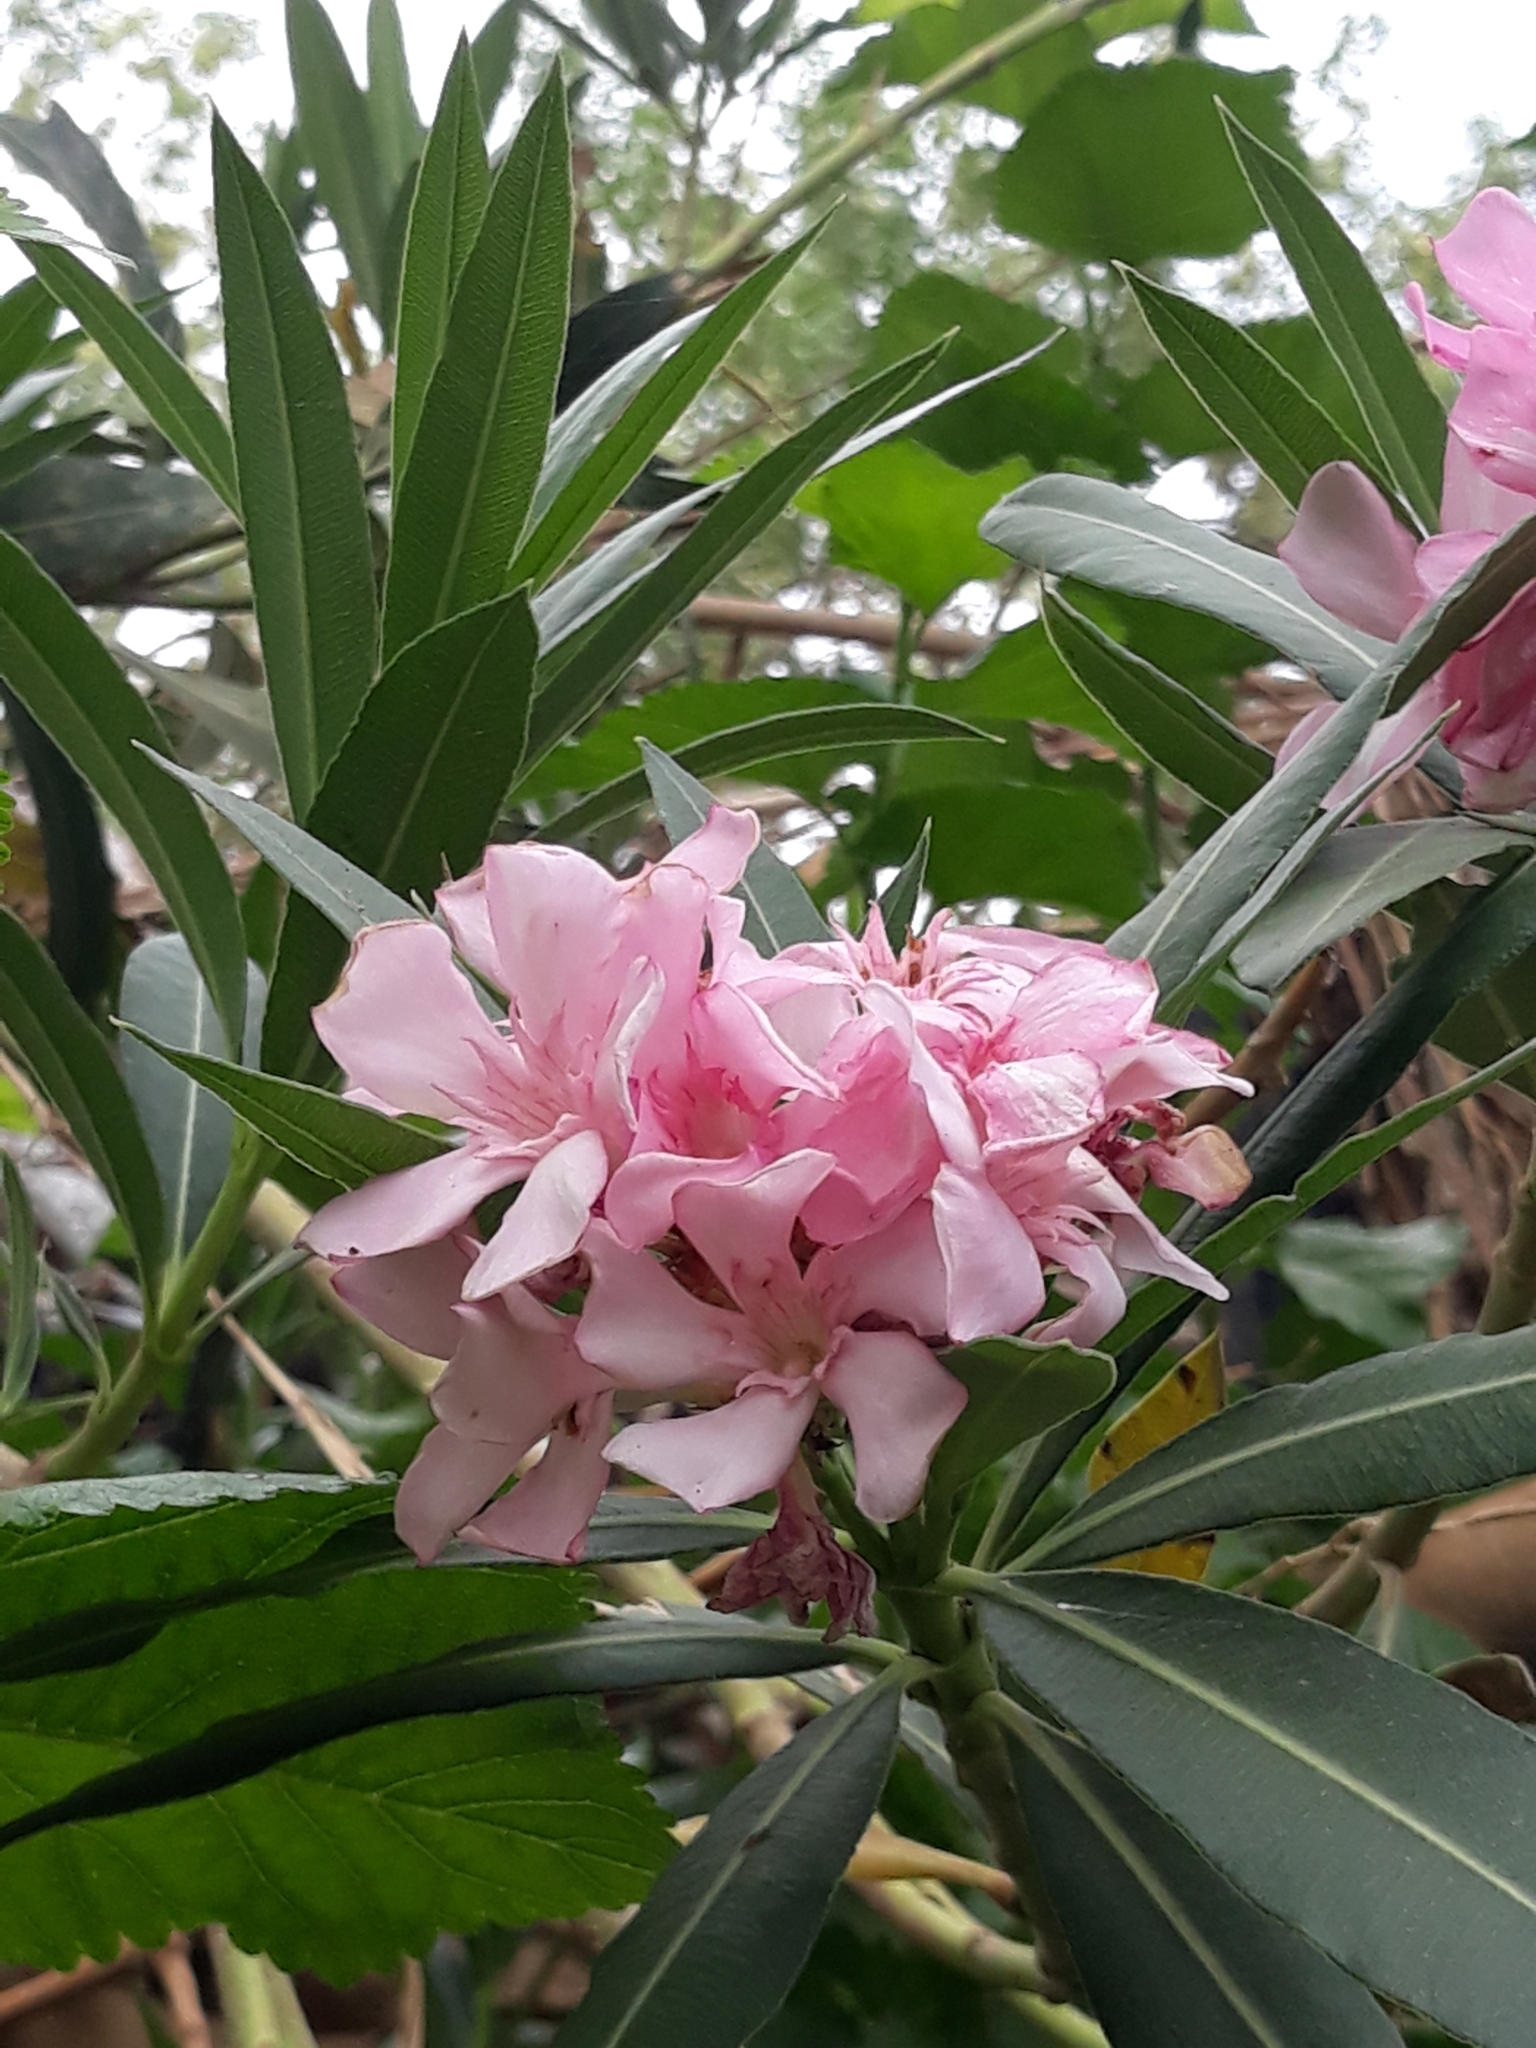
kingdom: Plantae
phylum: Tracheophyta
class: Magnoliopsida
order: Gentianales
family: Apocynaceae
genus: Nerium
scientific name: Nerium oleander
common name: Oleander
